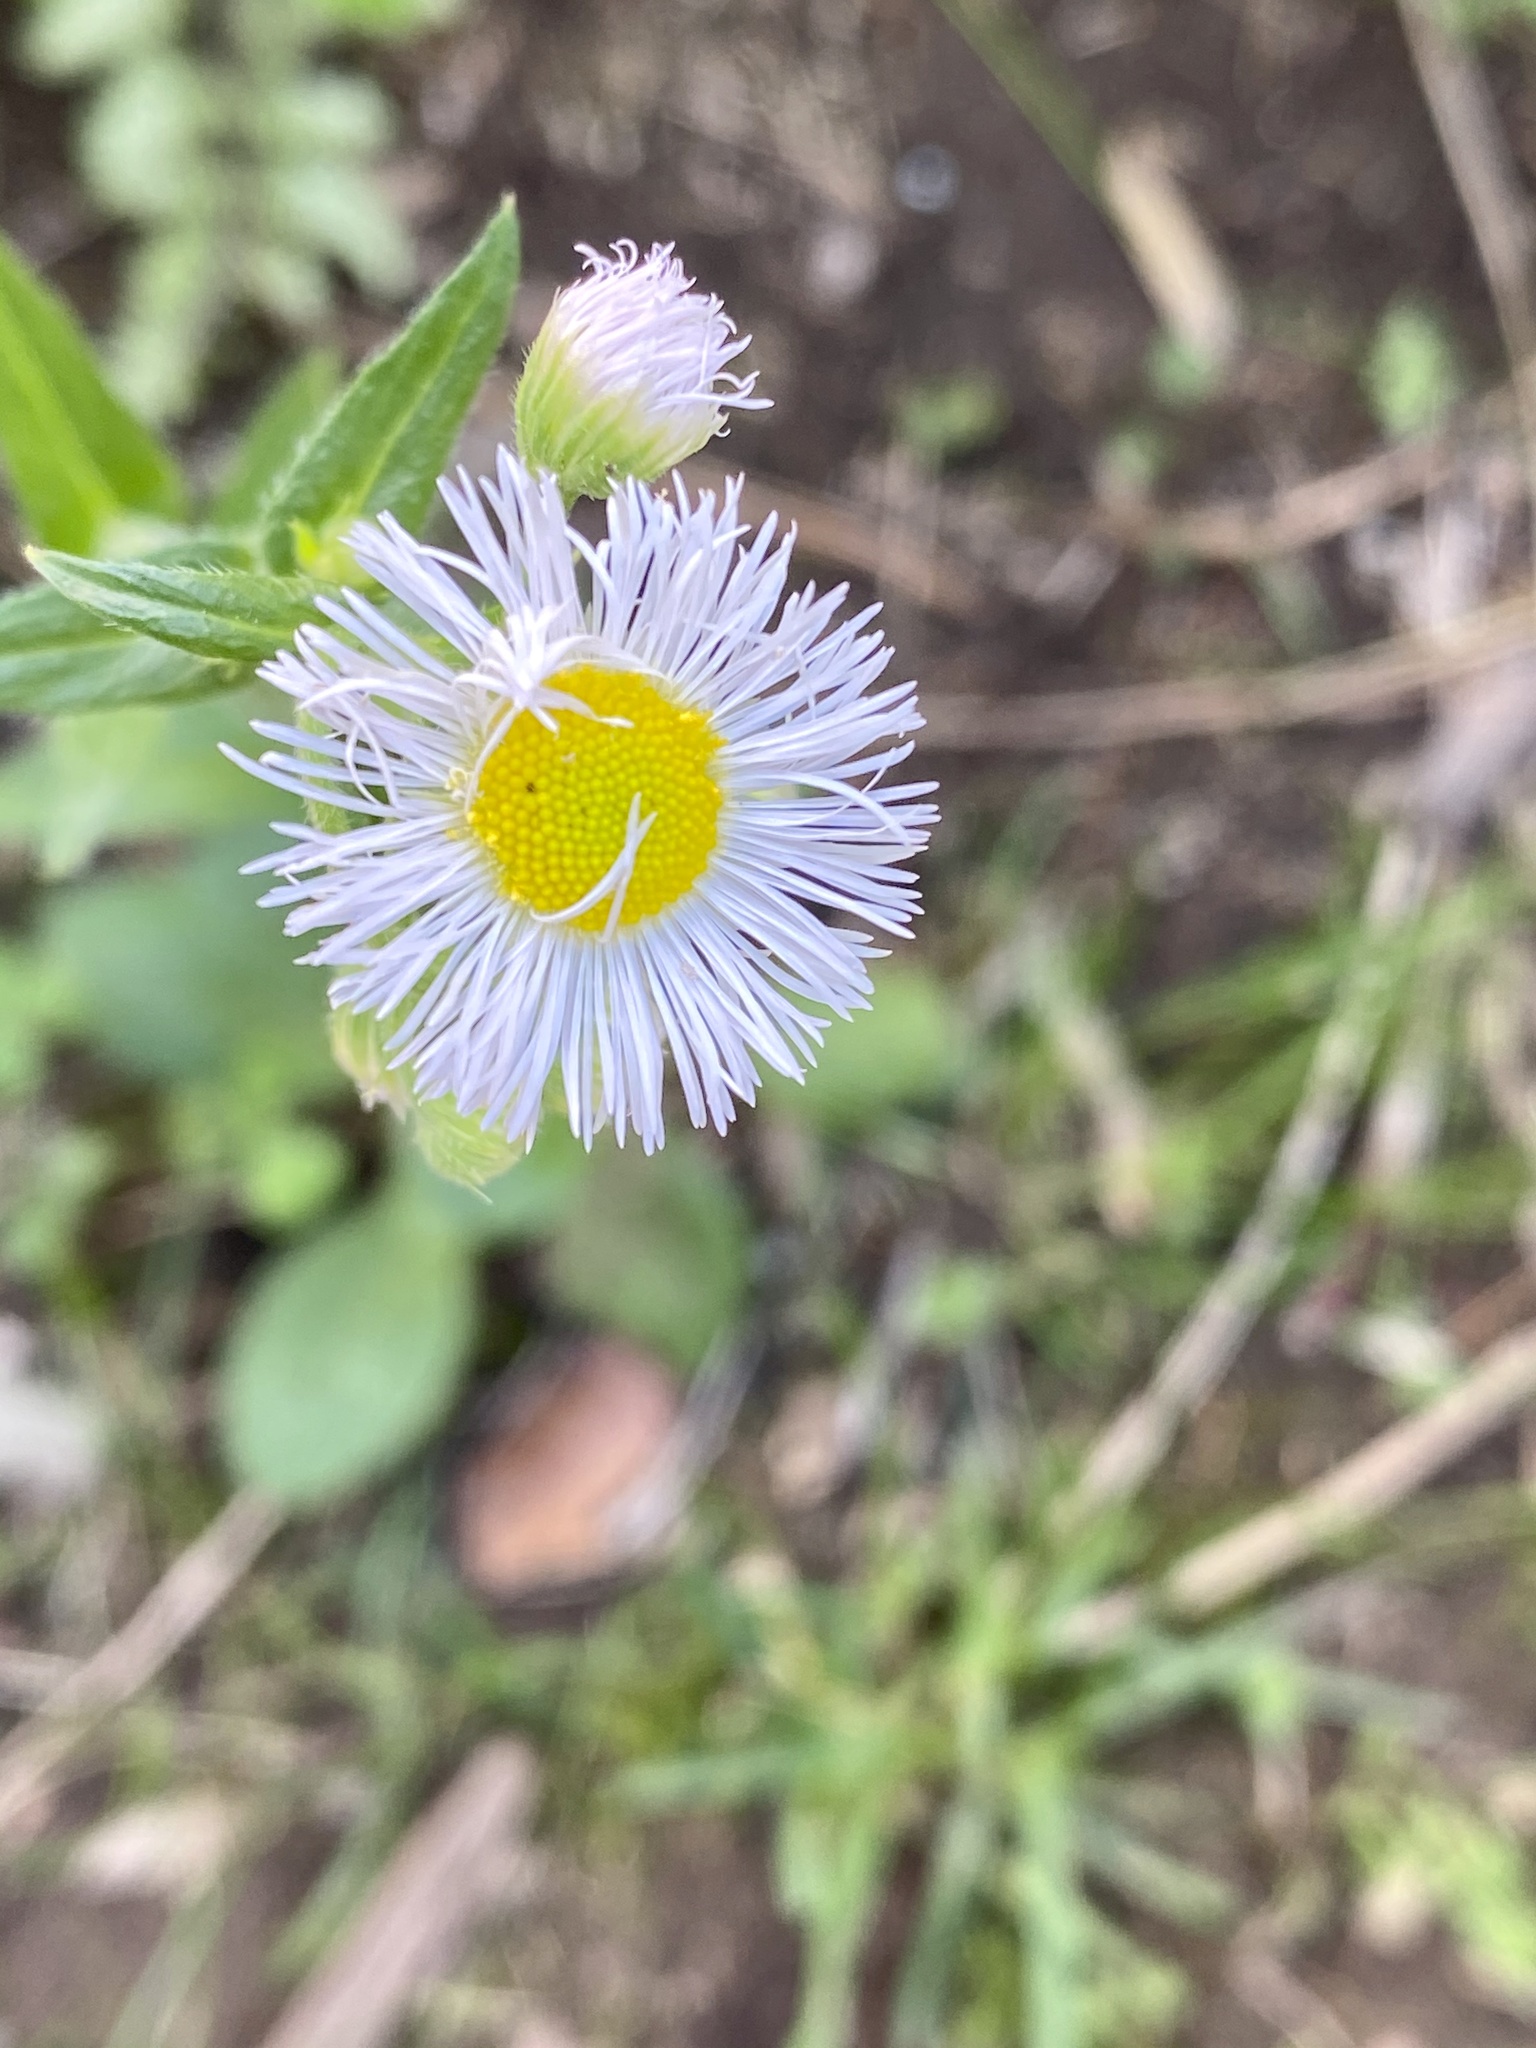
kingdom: Plantae
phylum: Tracheophyta
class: Magnoliopsida
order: Asterales
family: Asteraceae
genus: Erigeron
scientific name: Erigeron philadelphicus
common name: Robin's-plantain
